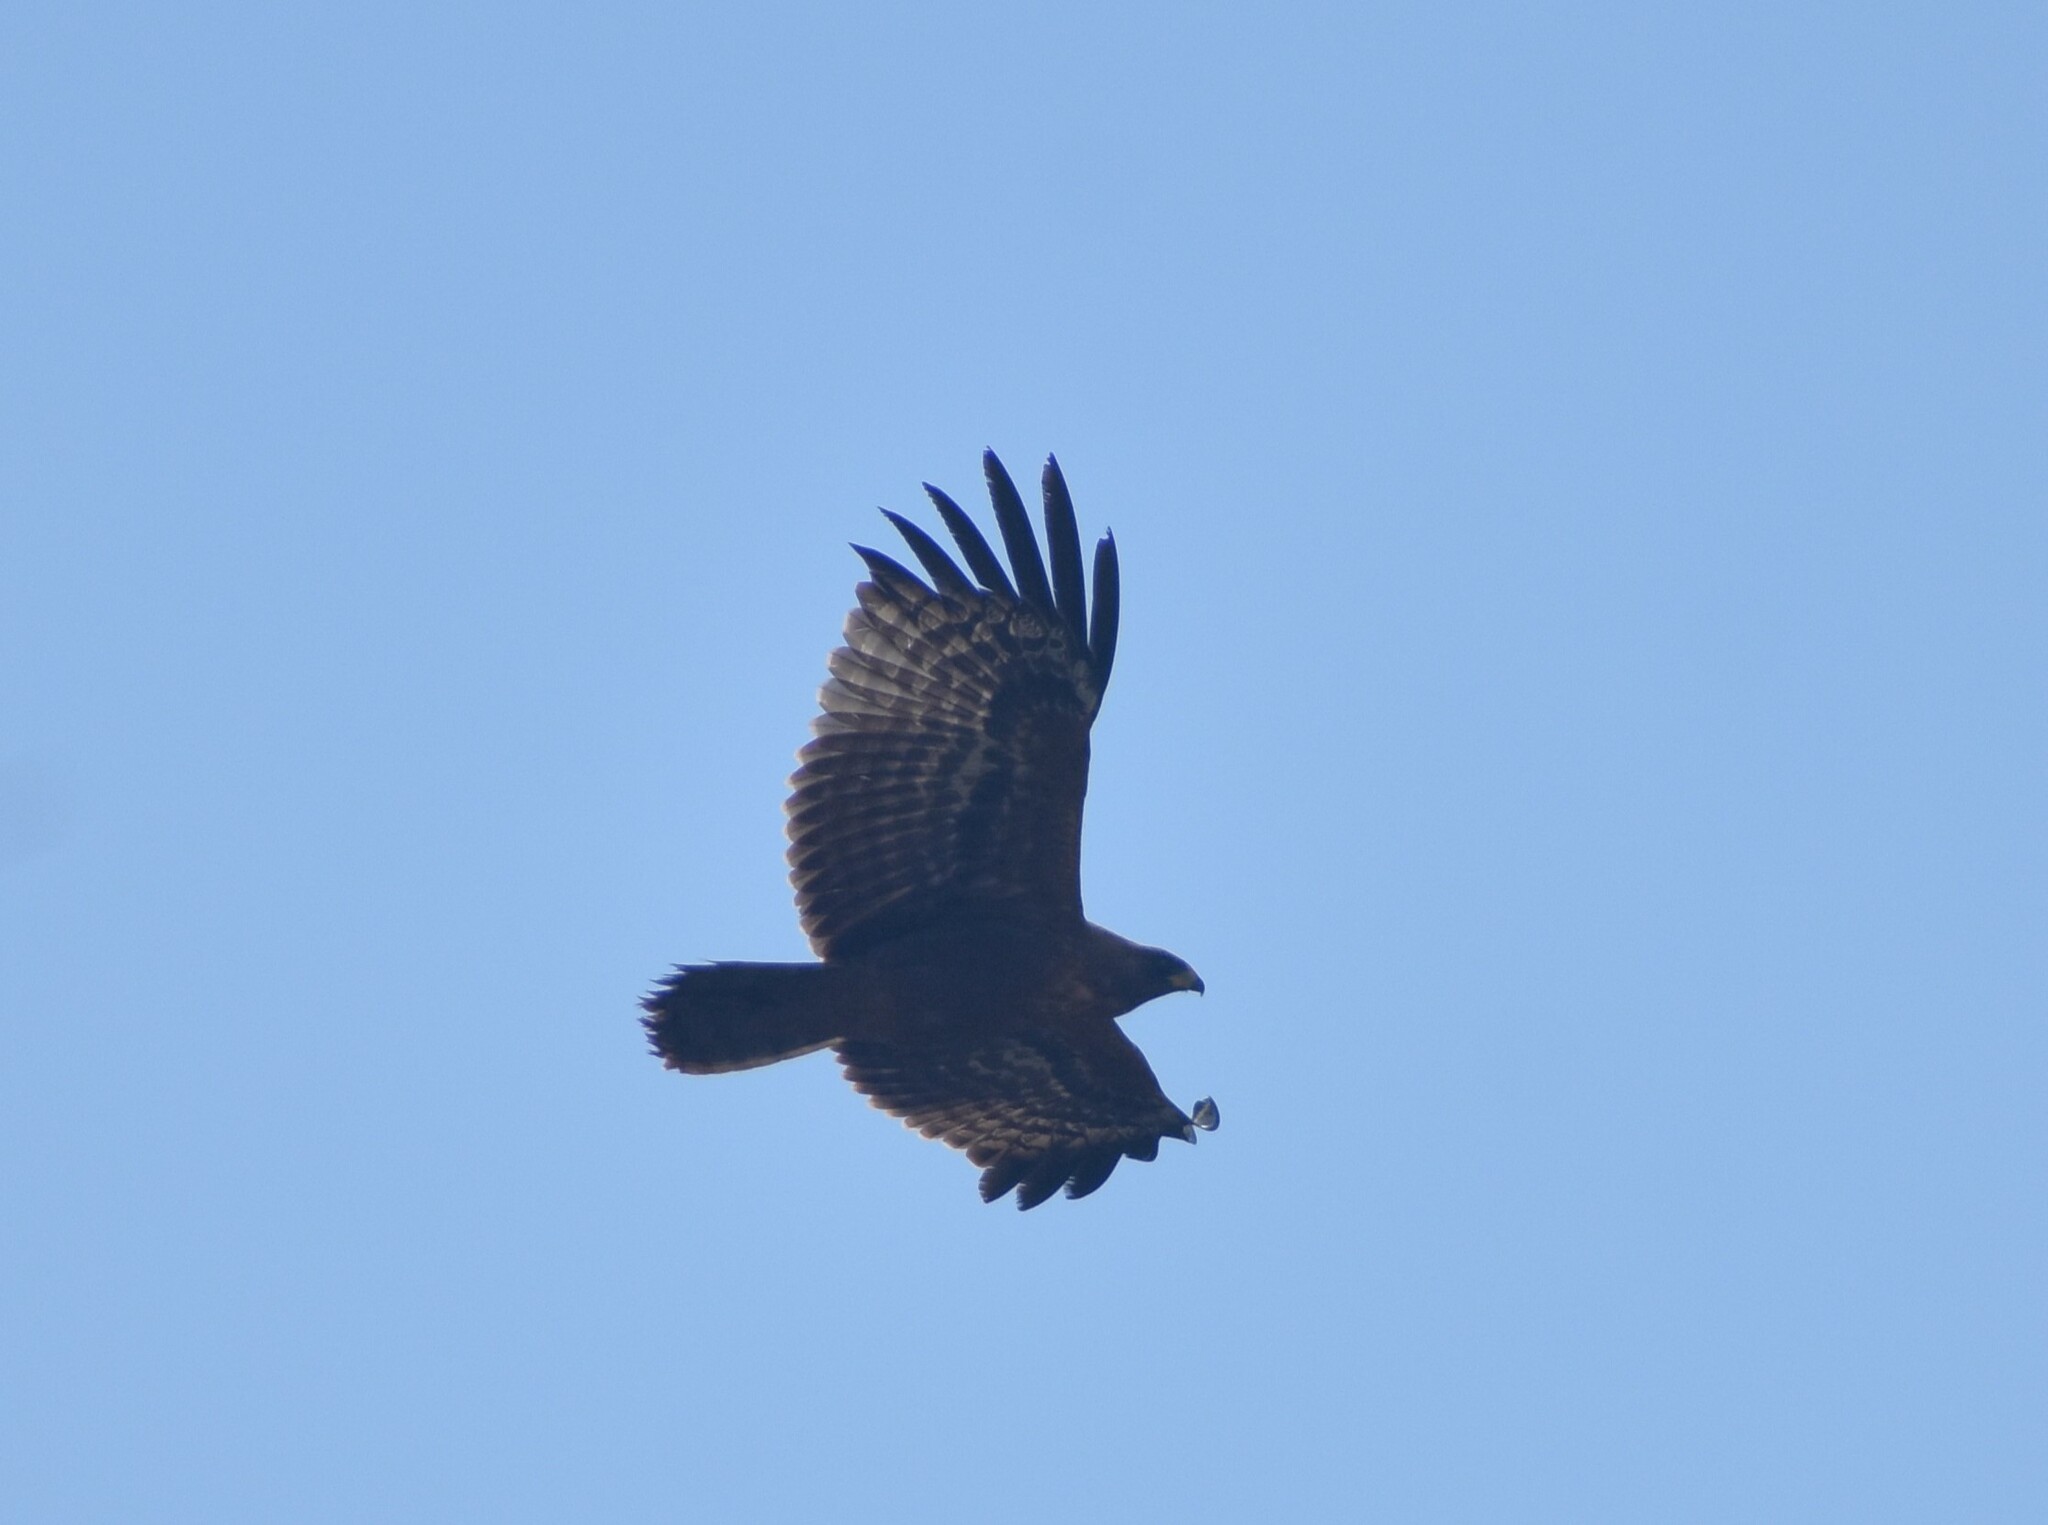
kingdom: Animalia
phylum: Chordata
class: Aves
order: Accipitriformes
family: Accipitridae
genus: Polyboroides
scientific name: Polyboroides typus
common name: African harrier-hawk
